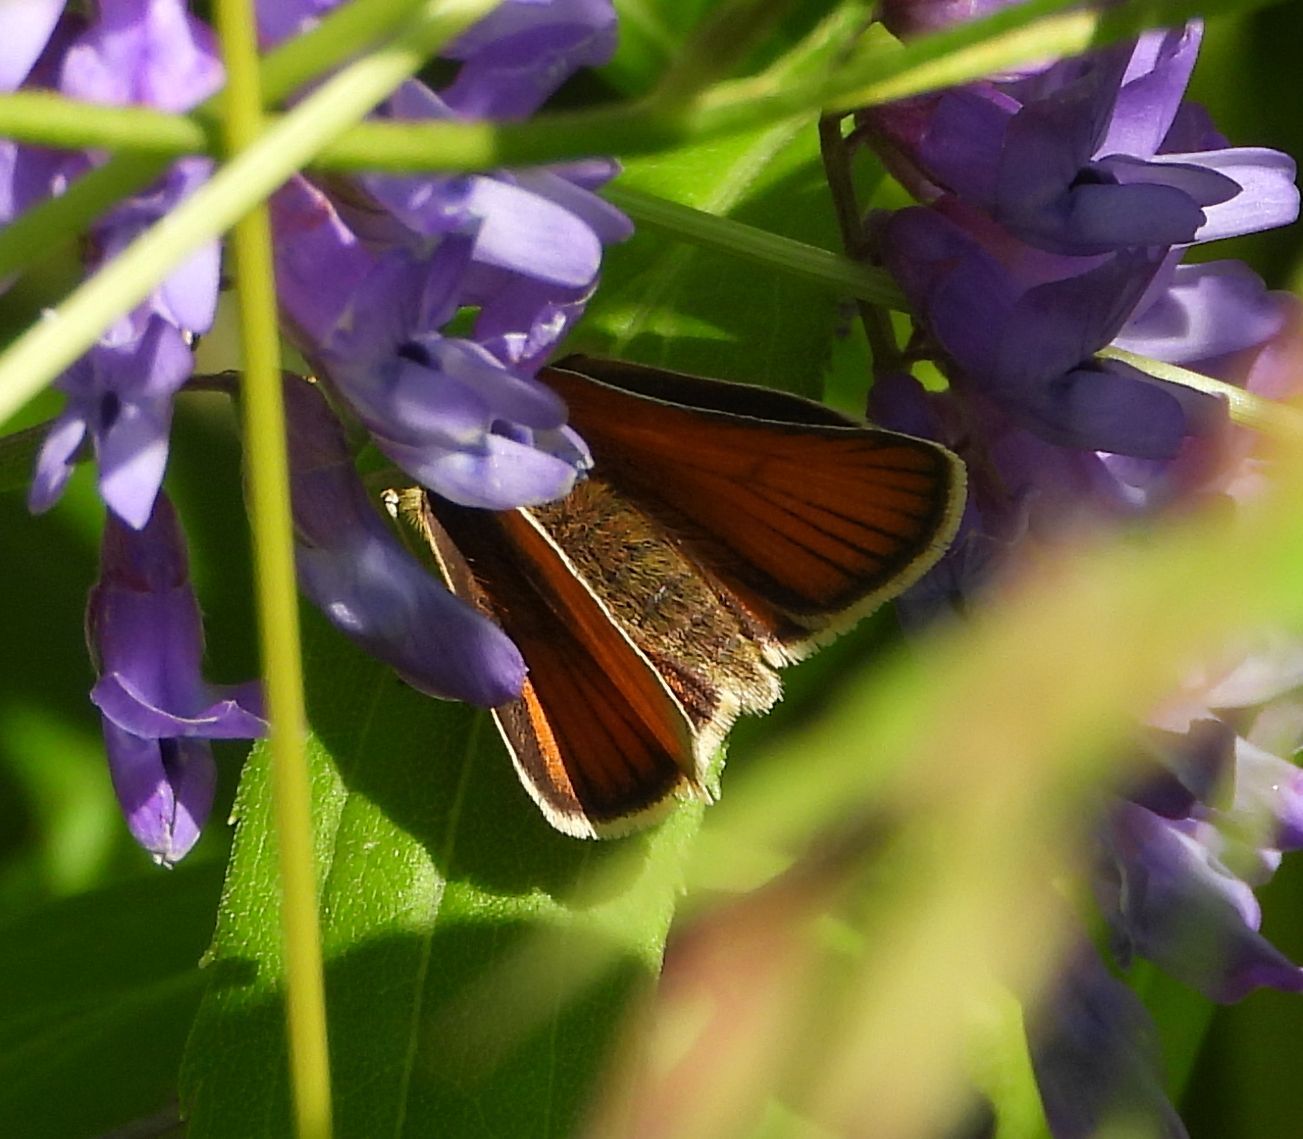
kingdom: Animalia
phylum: Arthropoda
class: Insecta
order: Lepidoptera
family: Hesperiidae
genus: Thymelicus
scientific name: Thymelicus lineola
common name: Essex skipper
